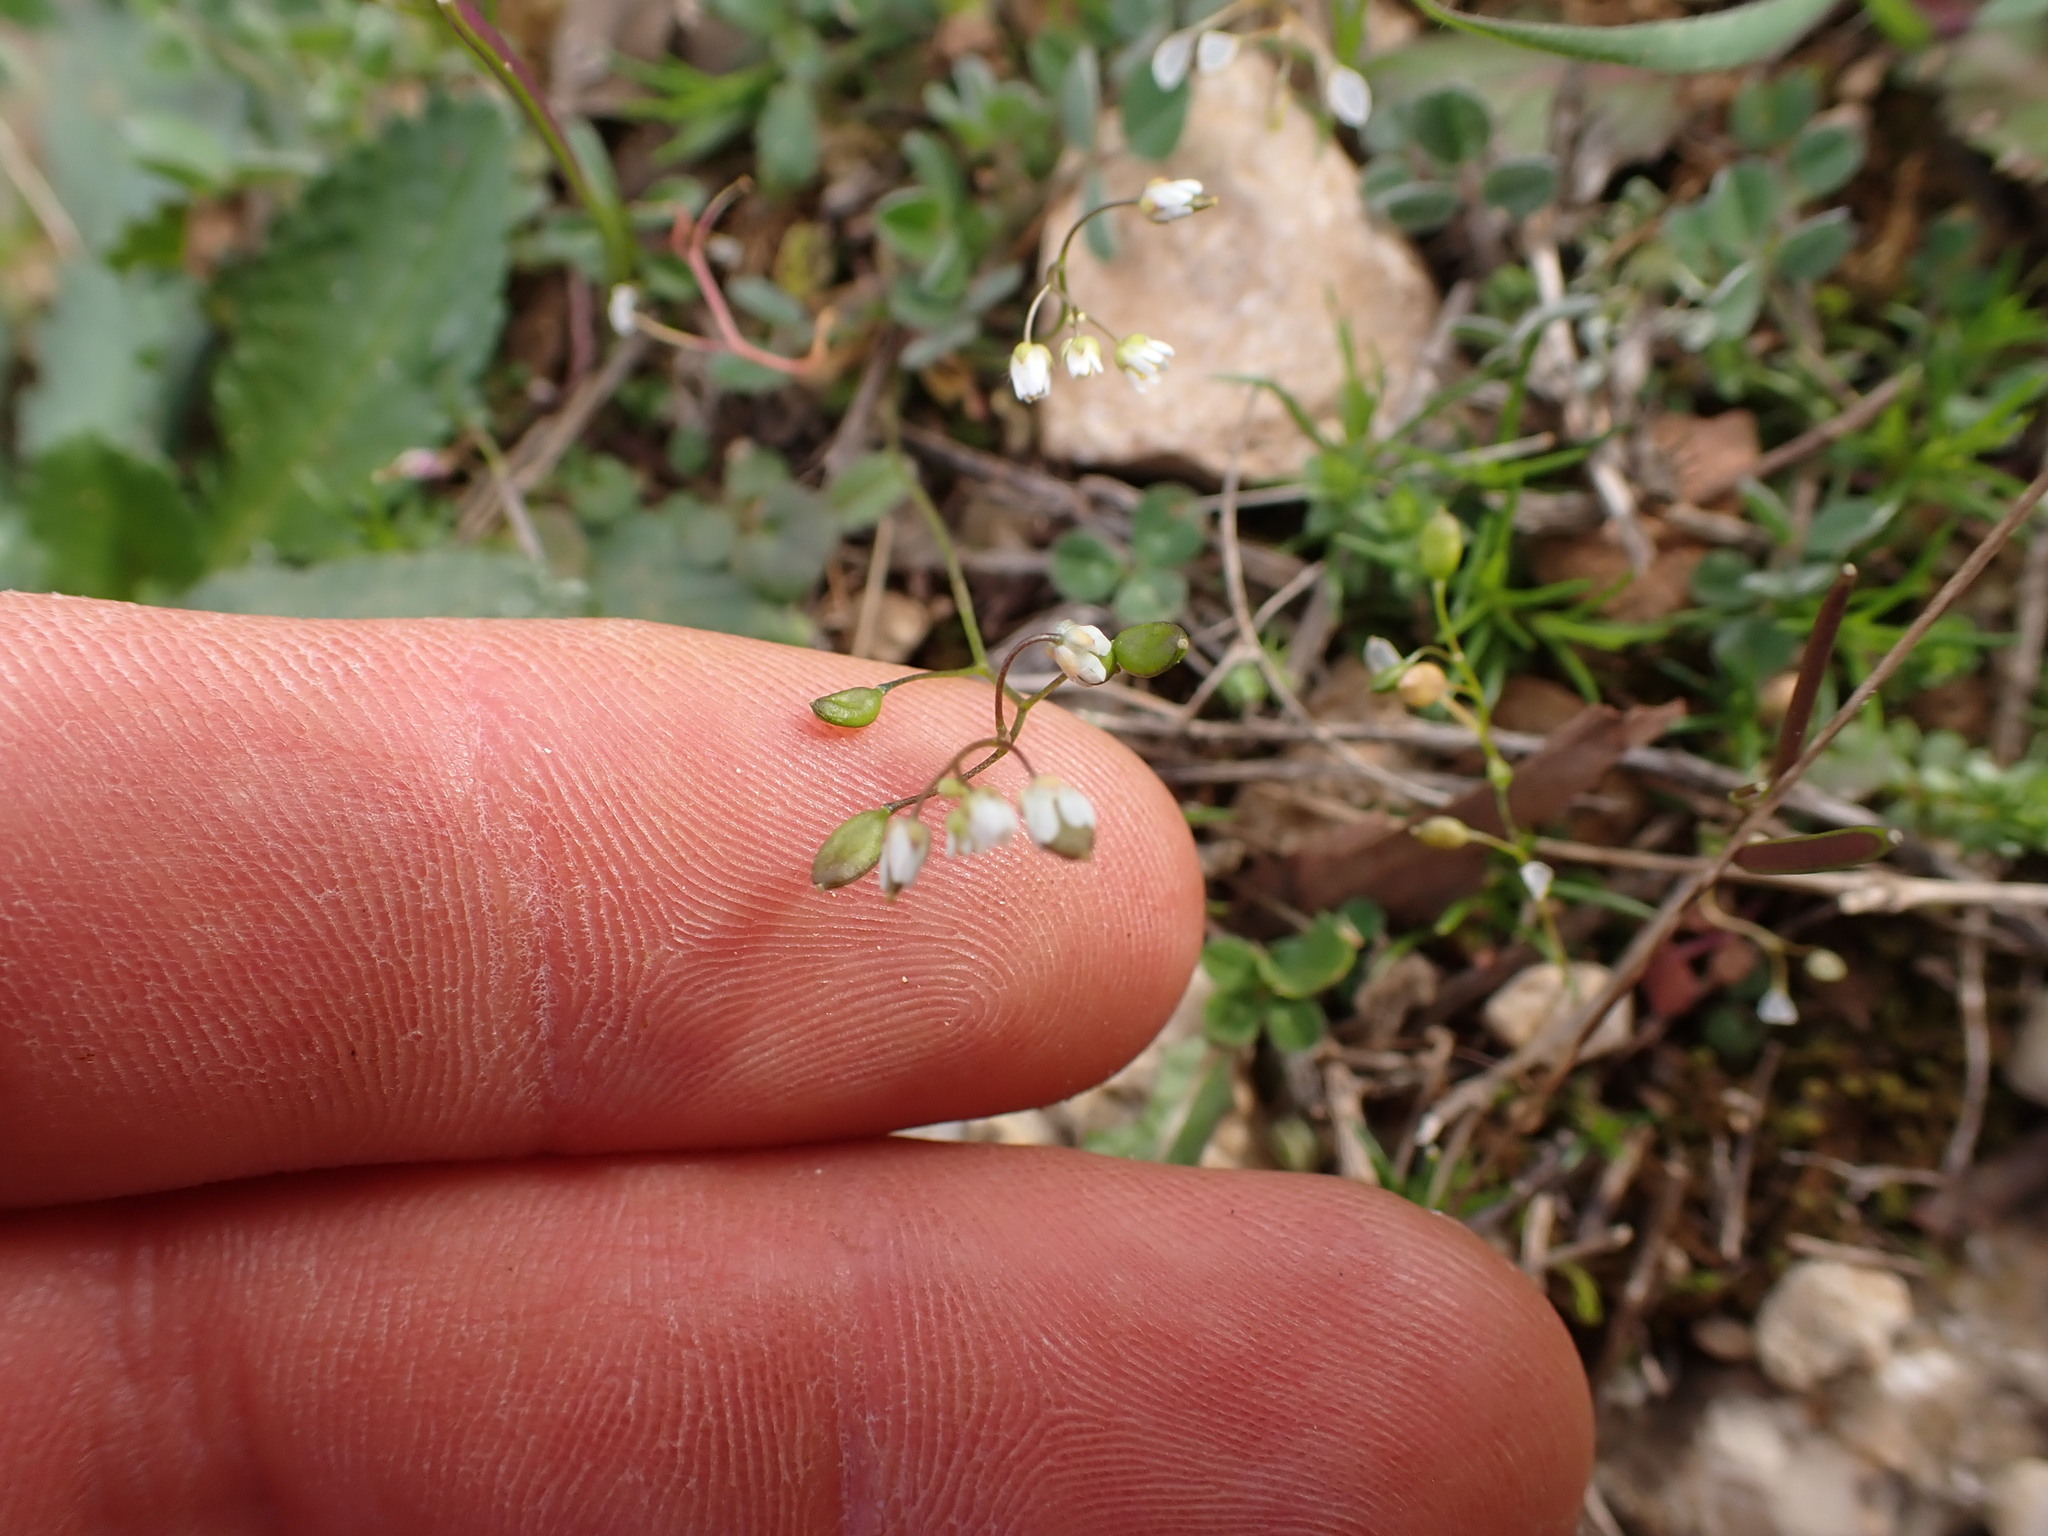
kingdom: Plantae
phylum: Tracheophyta
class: Magnoliopsida
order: Brassicales
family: Brassicaceae
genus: Draba
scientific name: Draba verna
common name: Spring draba
